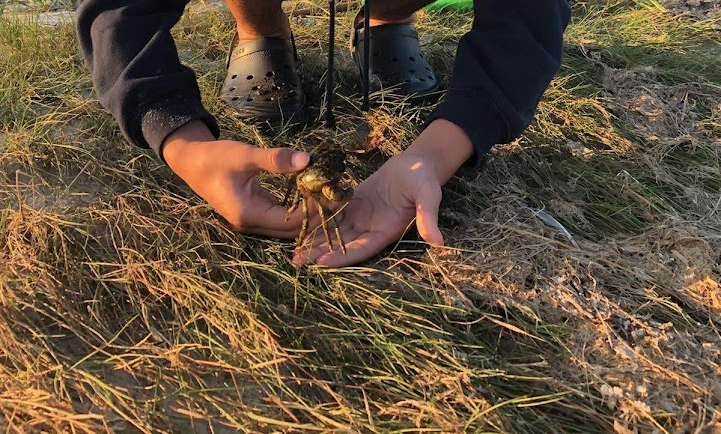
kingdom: Animalia
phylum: Arthropoda
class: Malacostraca
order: Decapoda
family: Carcinidae
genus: Carcinus
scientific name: Carcinus maenas
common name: European green crab
